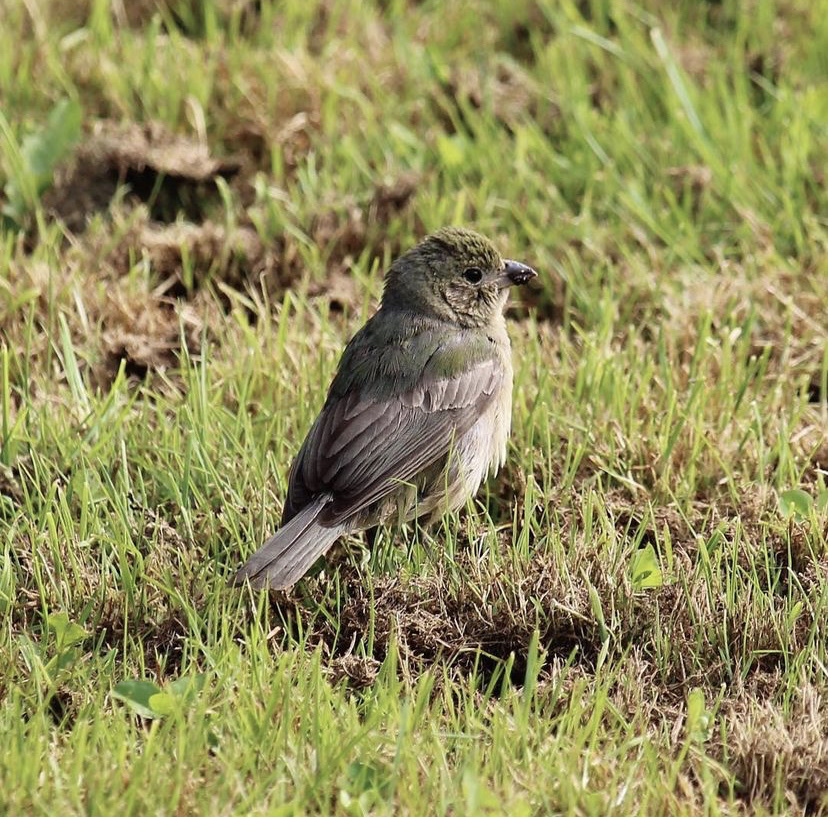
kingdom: Animalia
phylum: Chordata
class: Aves
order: Passeriformes
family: Cardinalidae
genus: Passerina
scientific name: Passerina ciris
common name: Painted bunting
